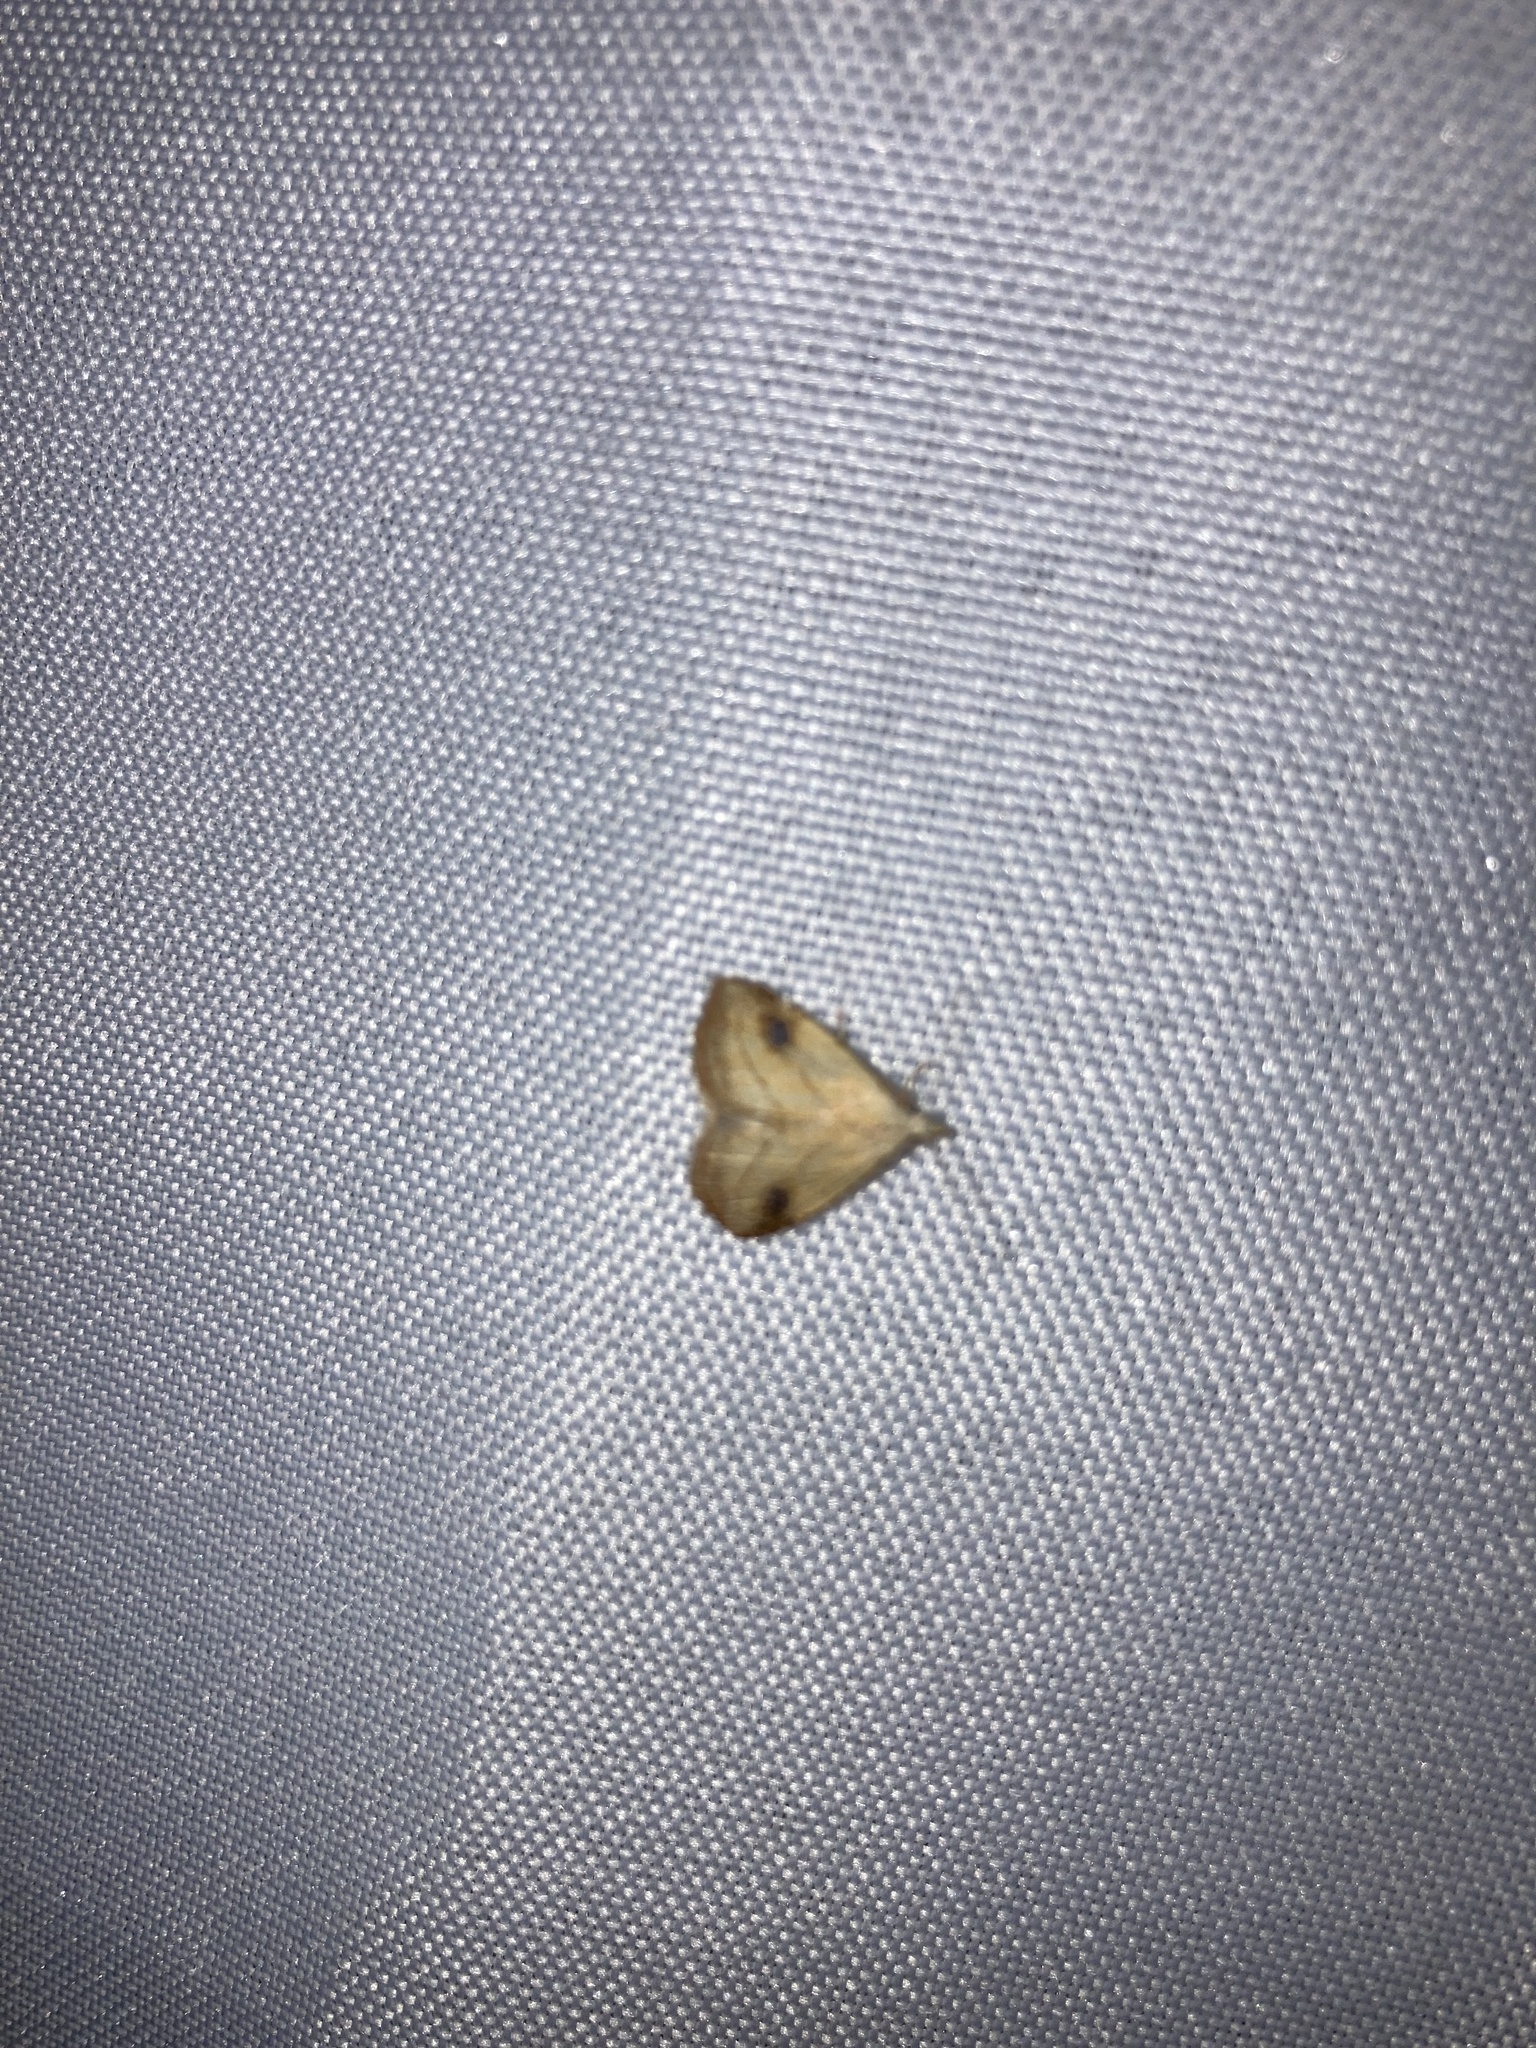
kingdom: Animalia
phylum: Arthropoda
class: Insecta
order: Lepidoptera
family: Erebidae
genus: Rivula
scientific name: Rivula propinqualis
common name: Spotted grass moth
